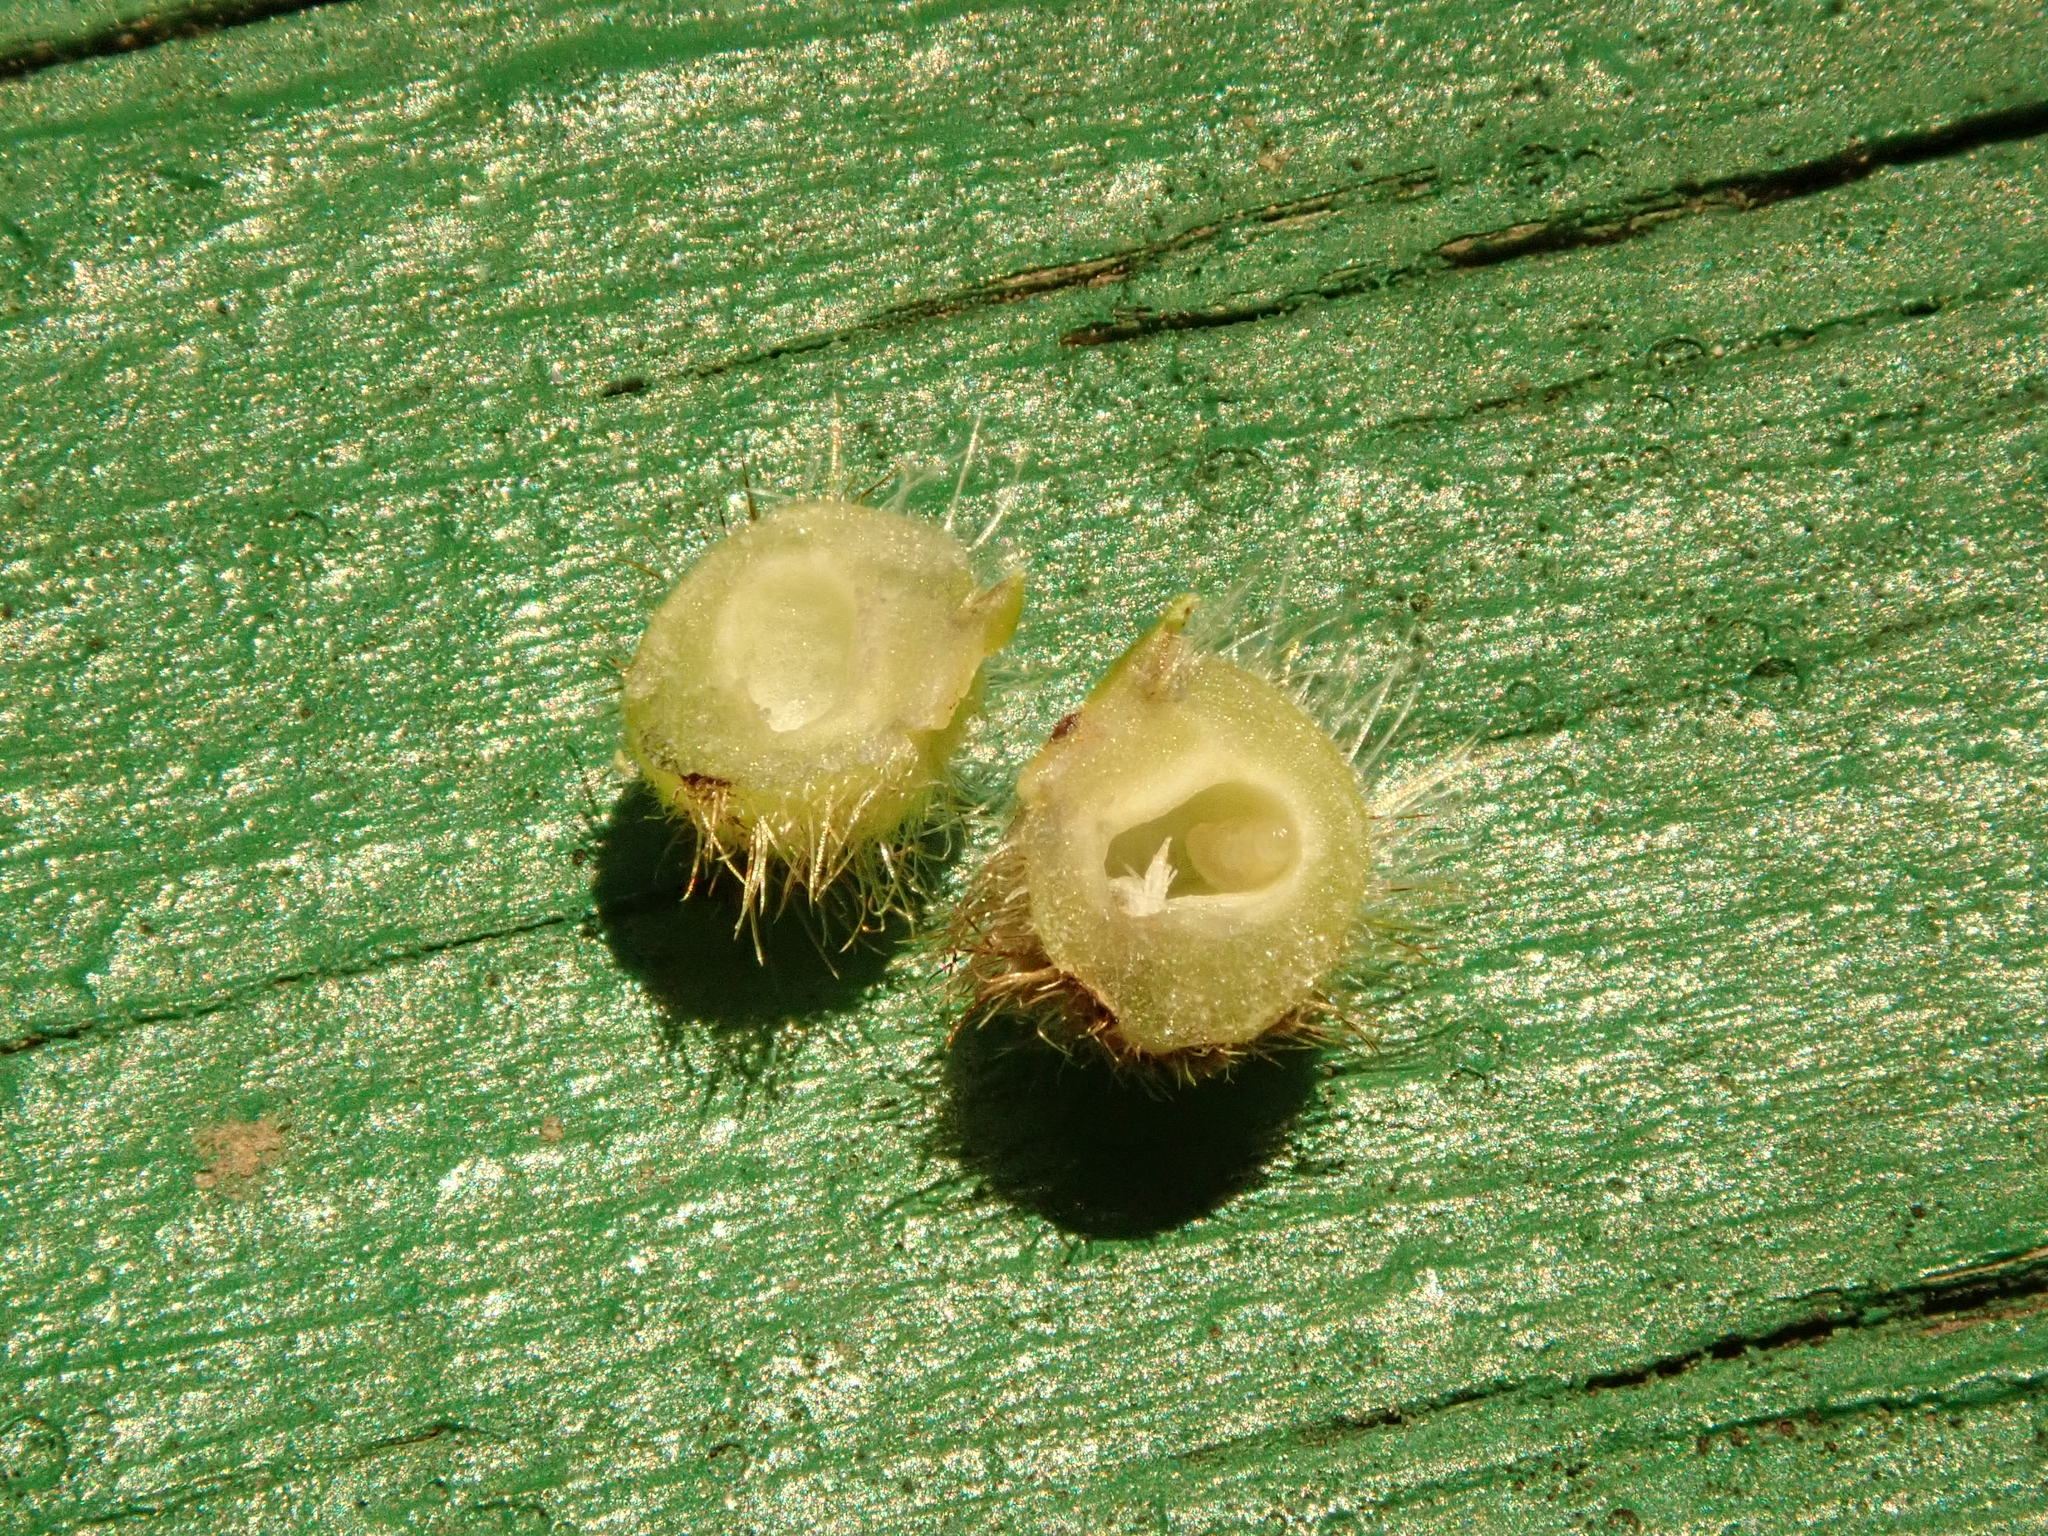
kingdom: Animalia
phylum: Arthropoda
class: Insecta
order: Diptera
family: Cecidomyiidae
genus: Caryomyia
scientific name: Caryomyia holotricha
